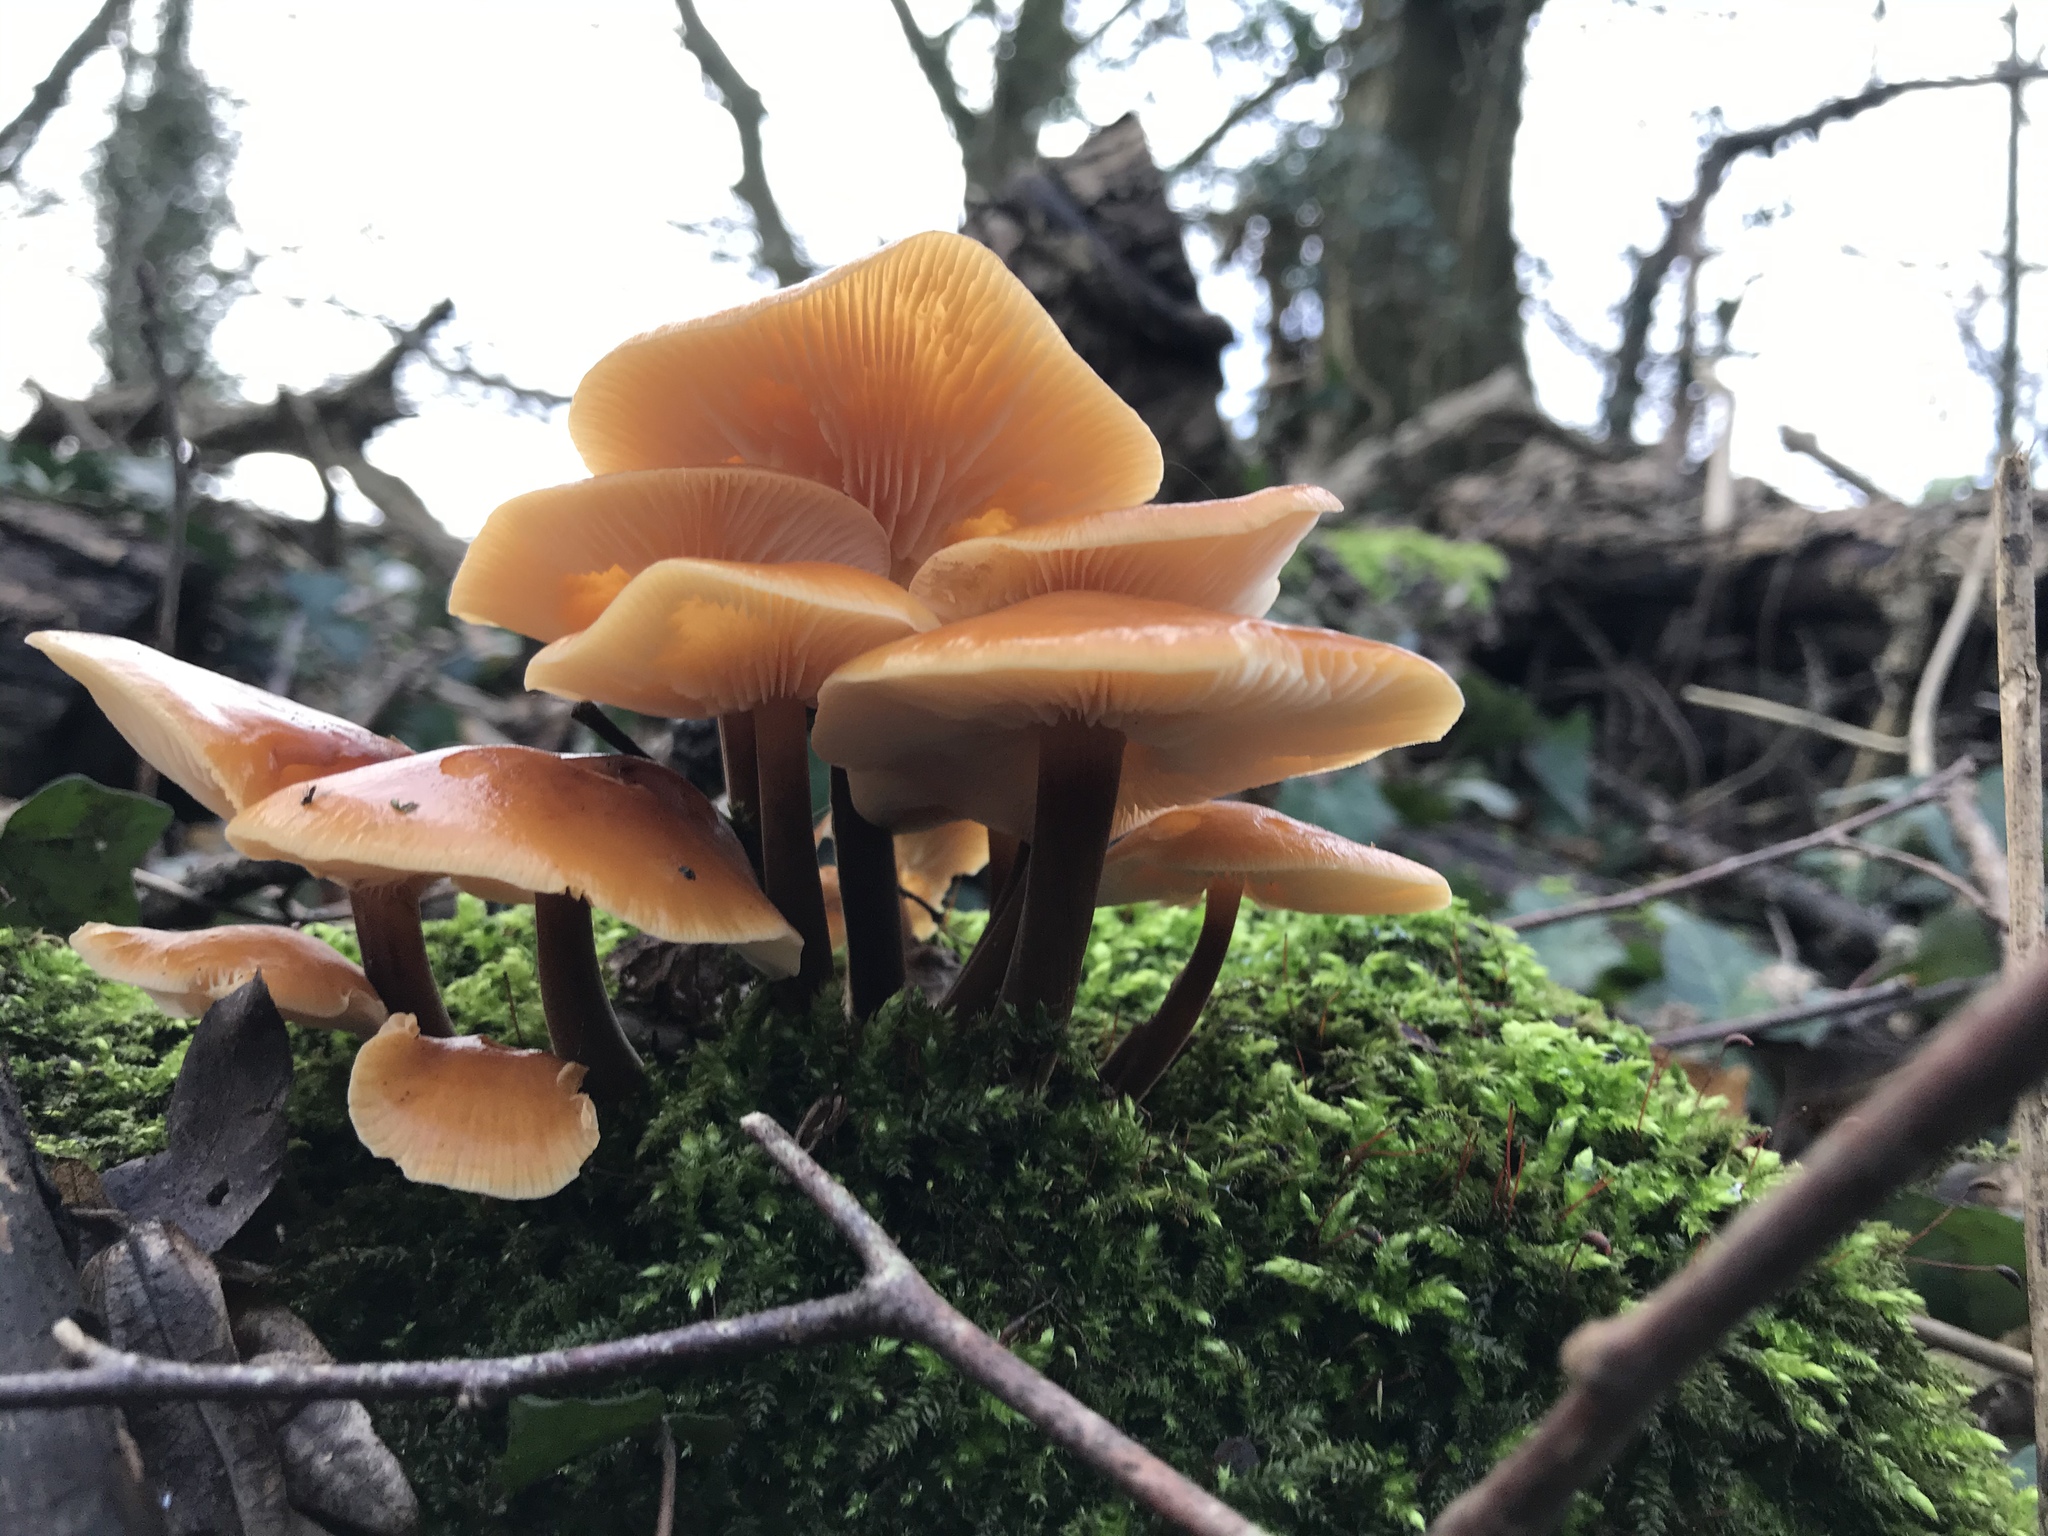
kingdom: Fungi
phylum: Basidiomycota
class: Agaricomycetes
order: Agaricales
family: Physalacriaceae
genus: Flammulina
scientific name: Flammulina
